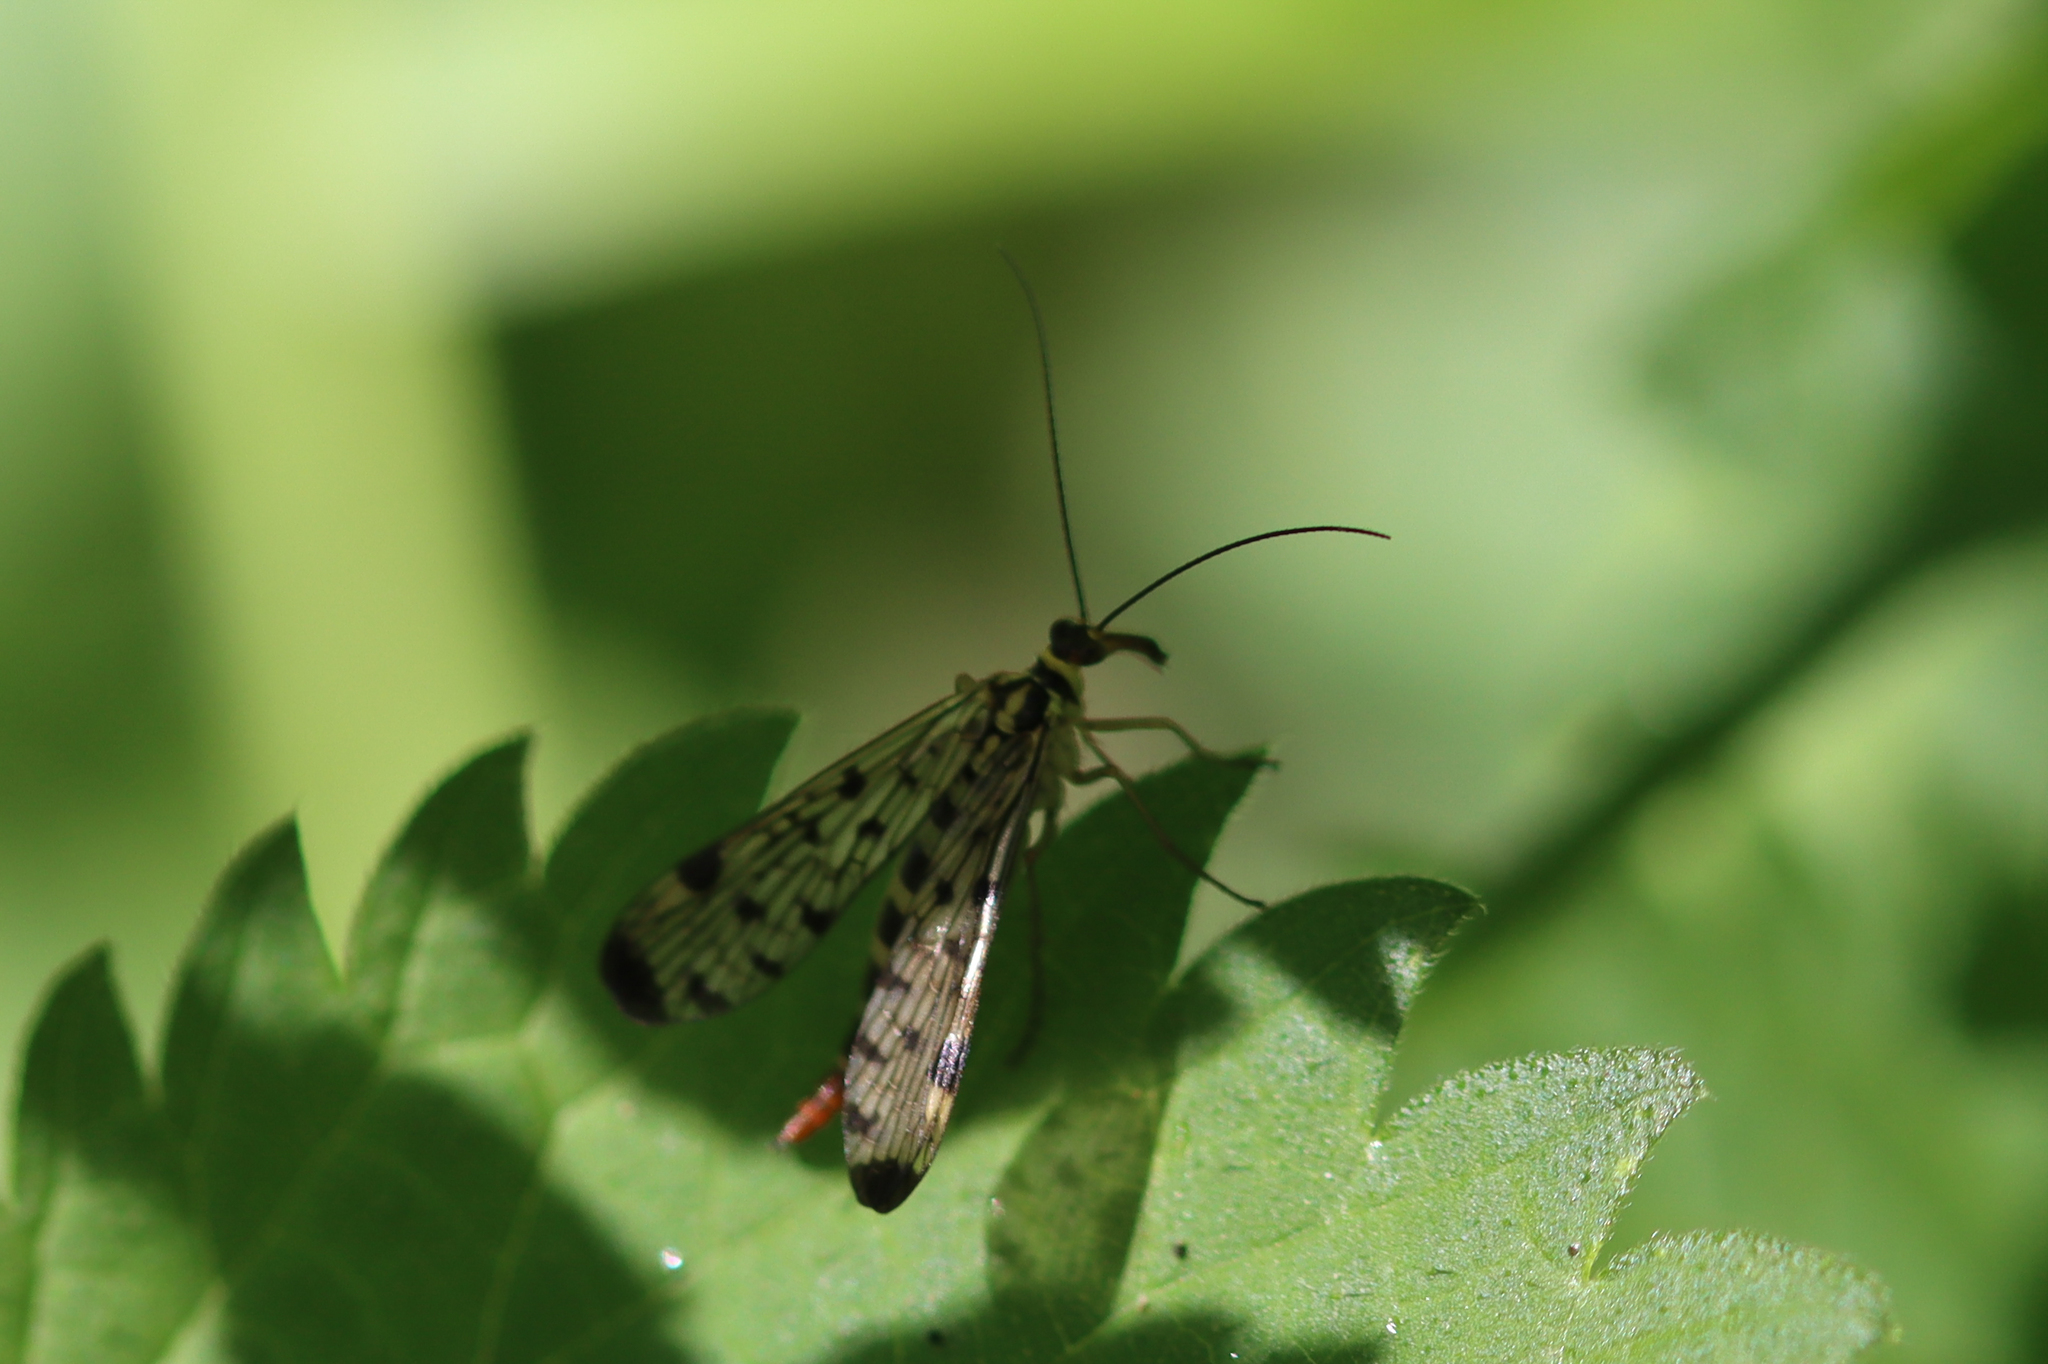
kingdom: Animalia
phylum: Arthropoda
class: Insecta
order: Mecoptera
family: Panorpidae
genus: Panorpa
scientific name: Panorpa germanica
